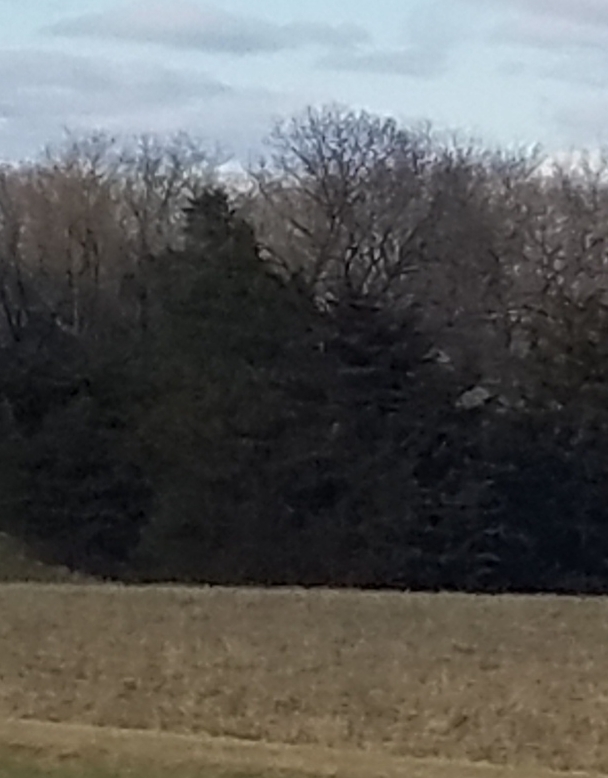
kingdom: Plantae
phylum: Tracheophyta
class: Pinopsida
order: Pinales
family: Cupressaceae
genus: Juniperus
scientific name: Juniperus virginiana
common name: Red juniper
